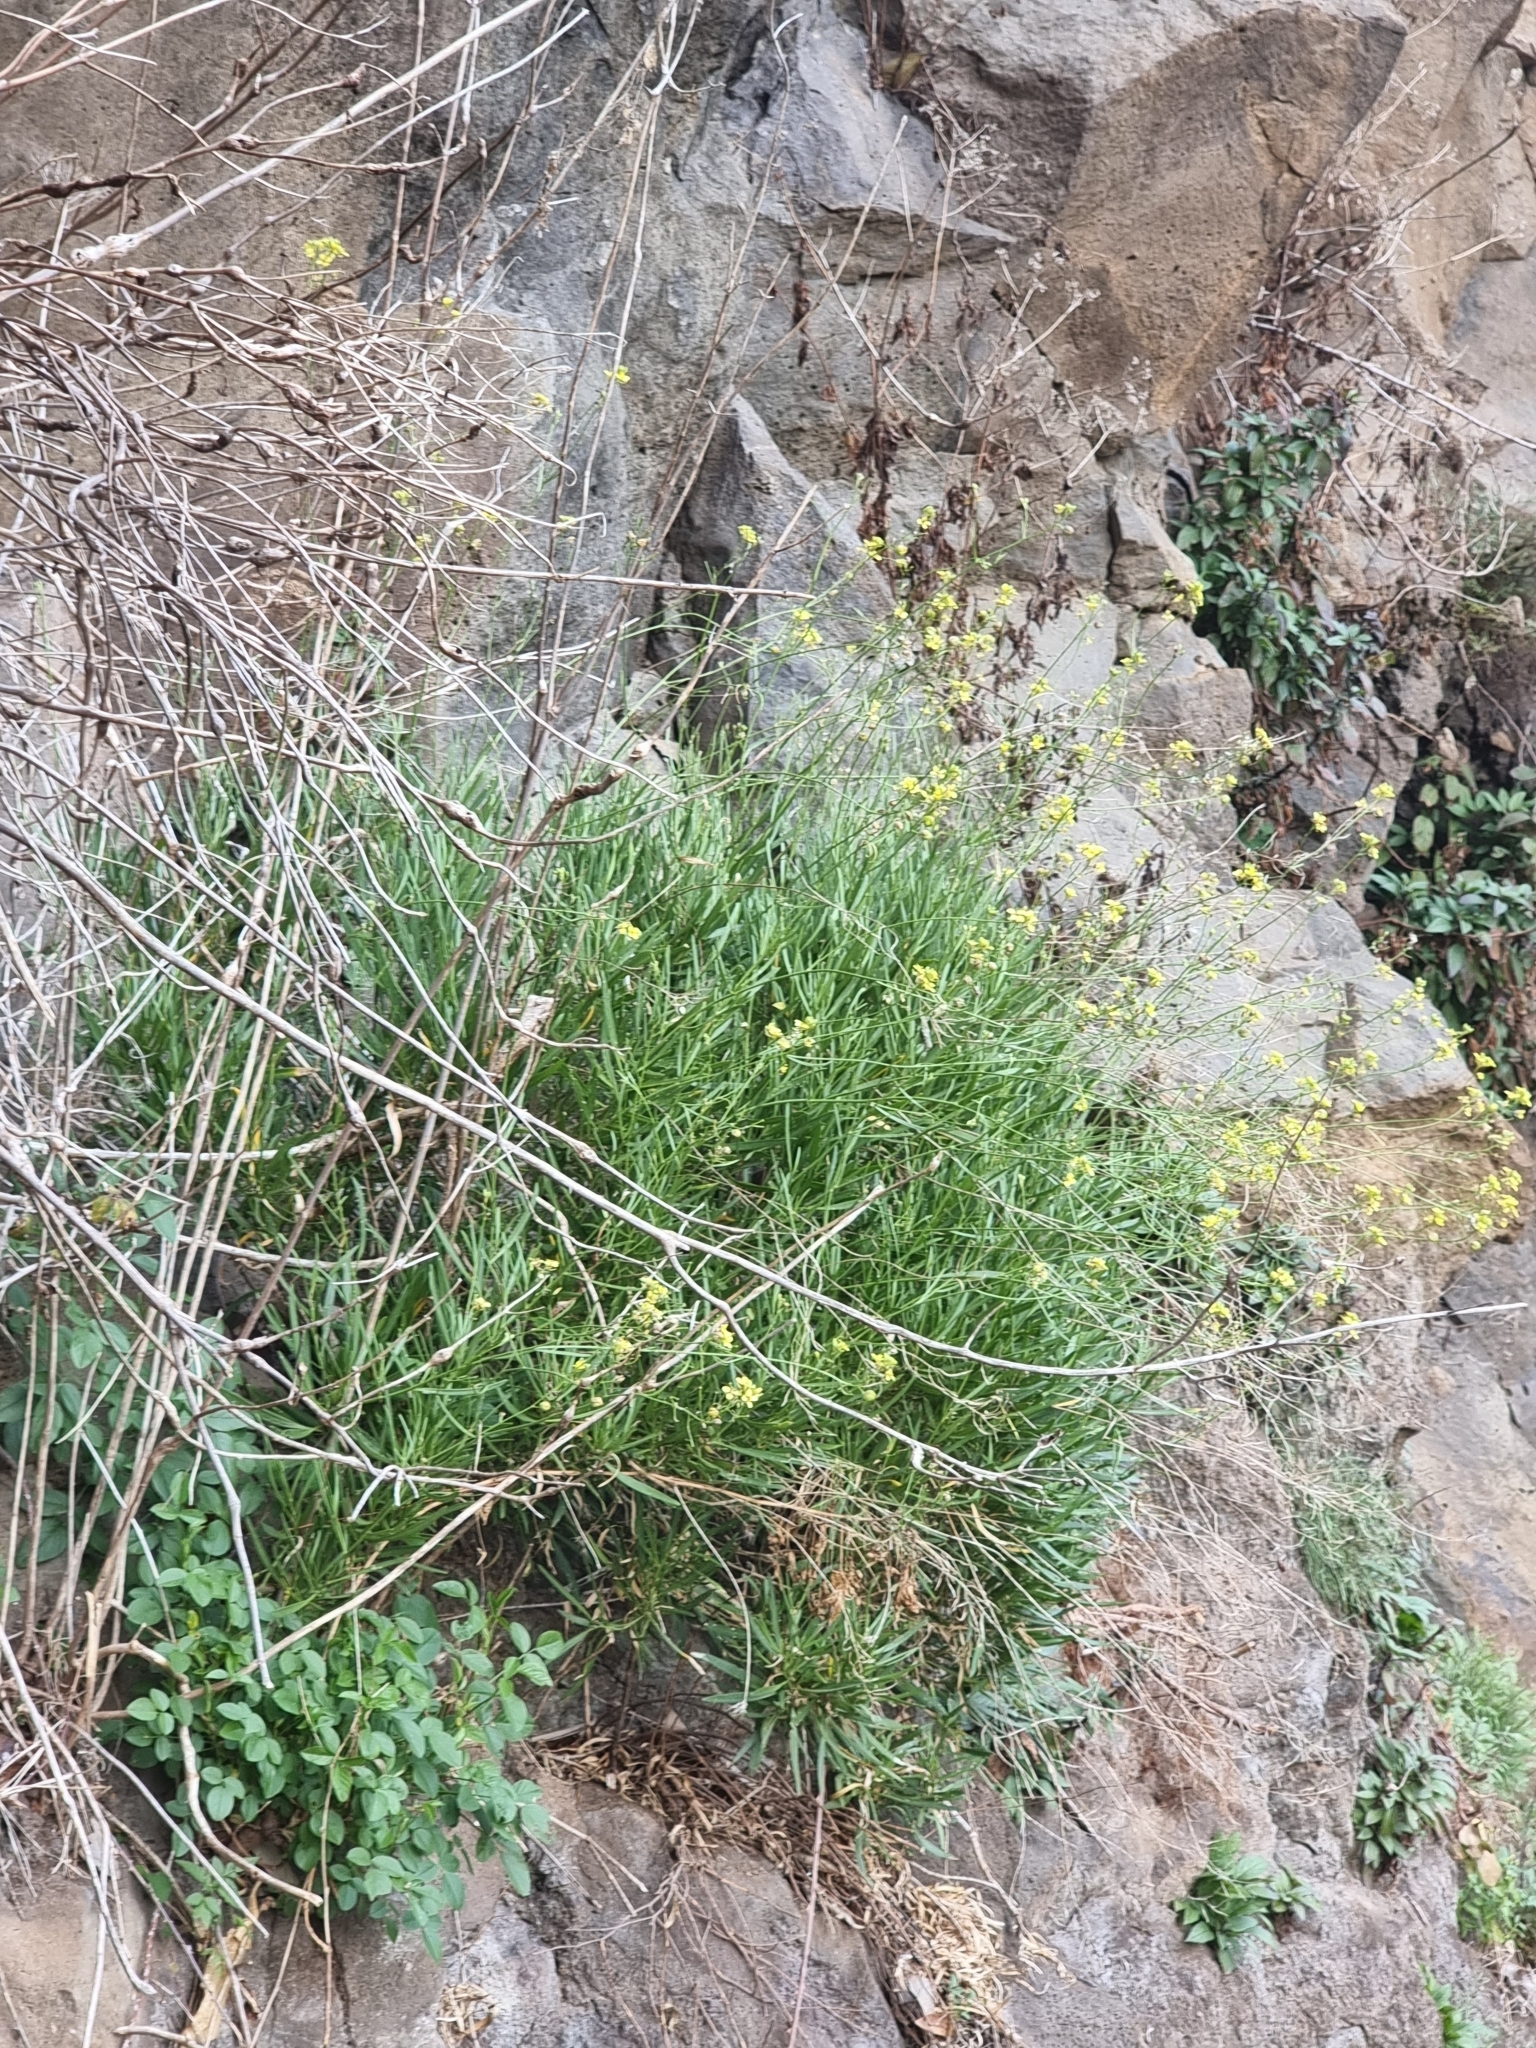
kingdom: Plantae
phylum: Tracheophyta
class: Magnoliopsida
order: Brassicales
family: Brassicaceae
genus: Sinapidendron
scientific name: Sinapidendron angustifolium
